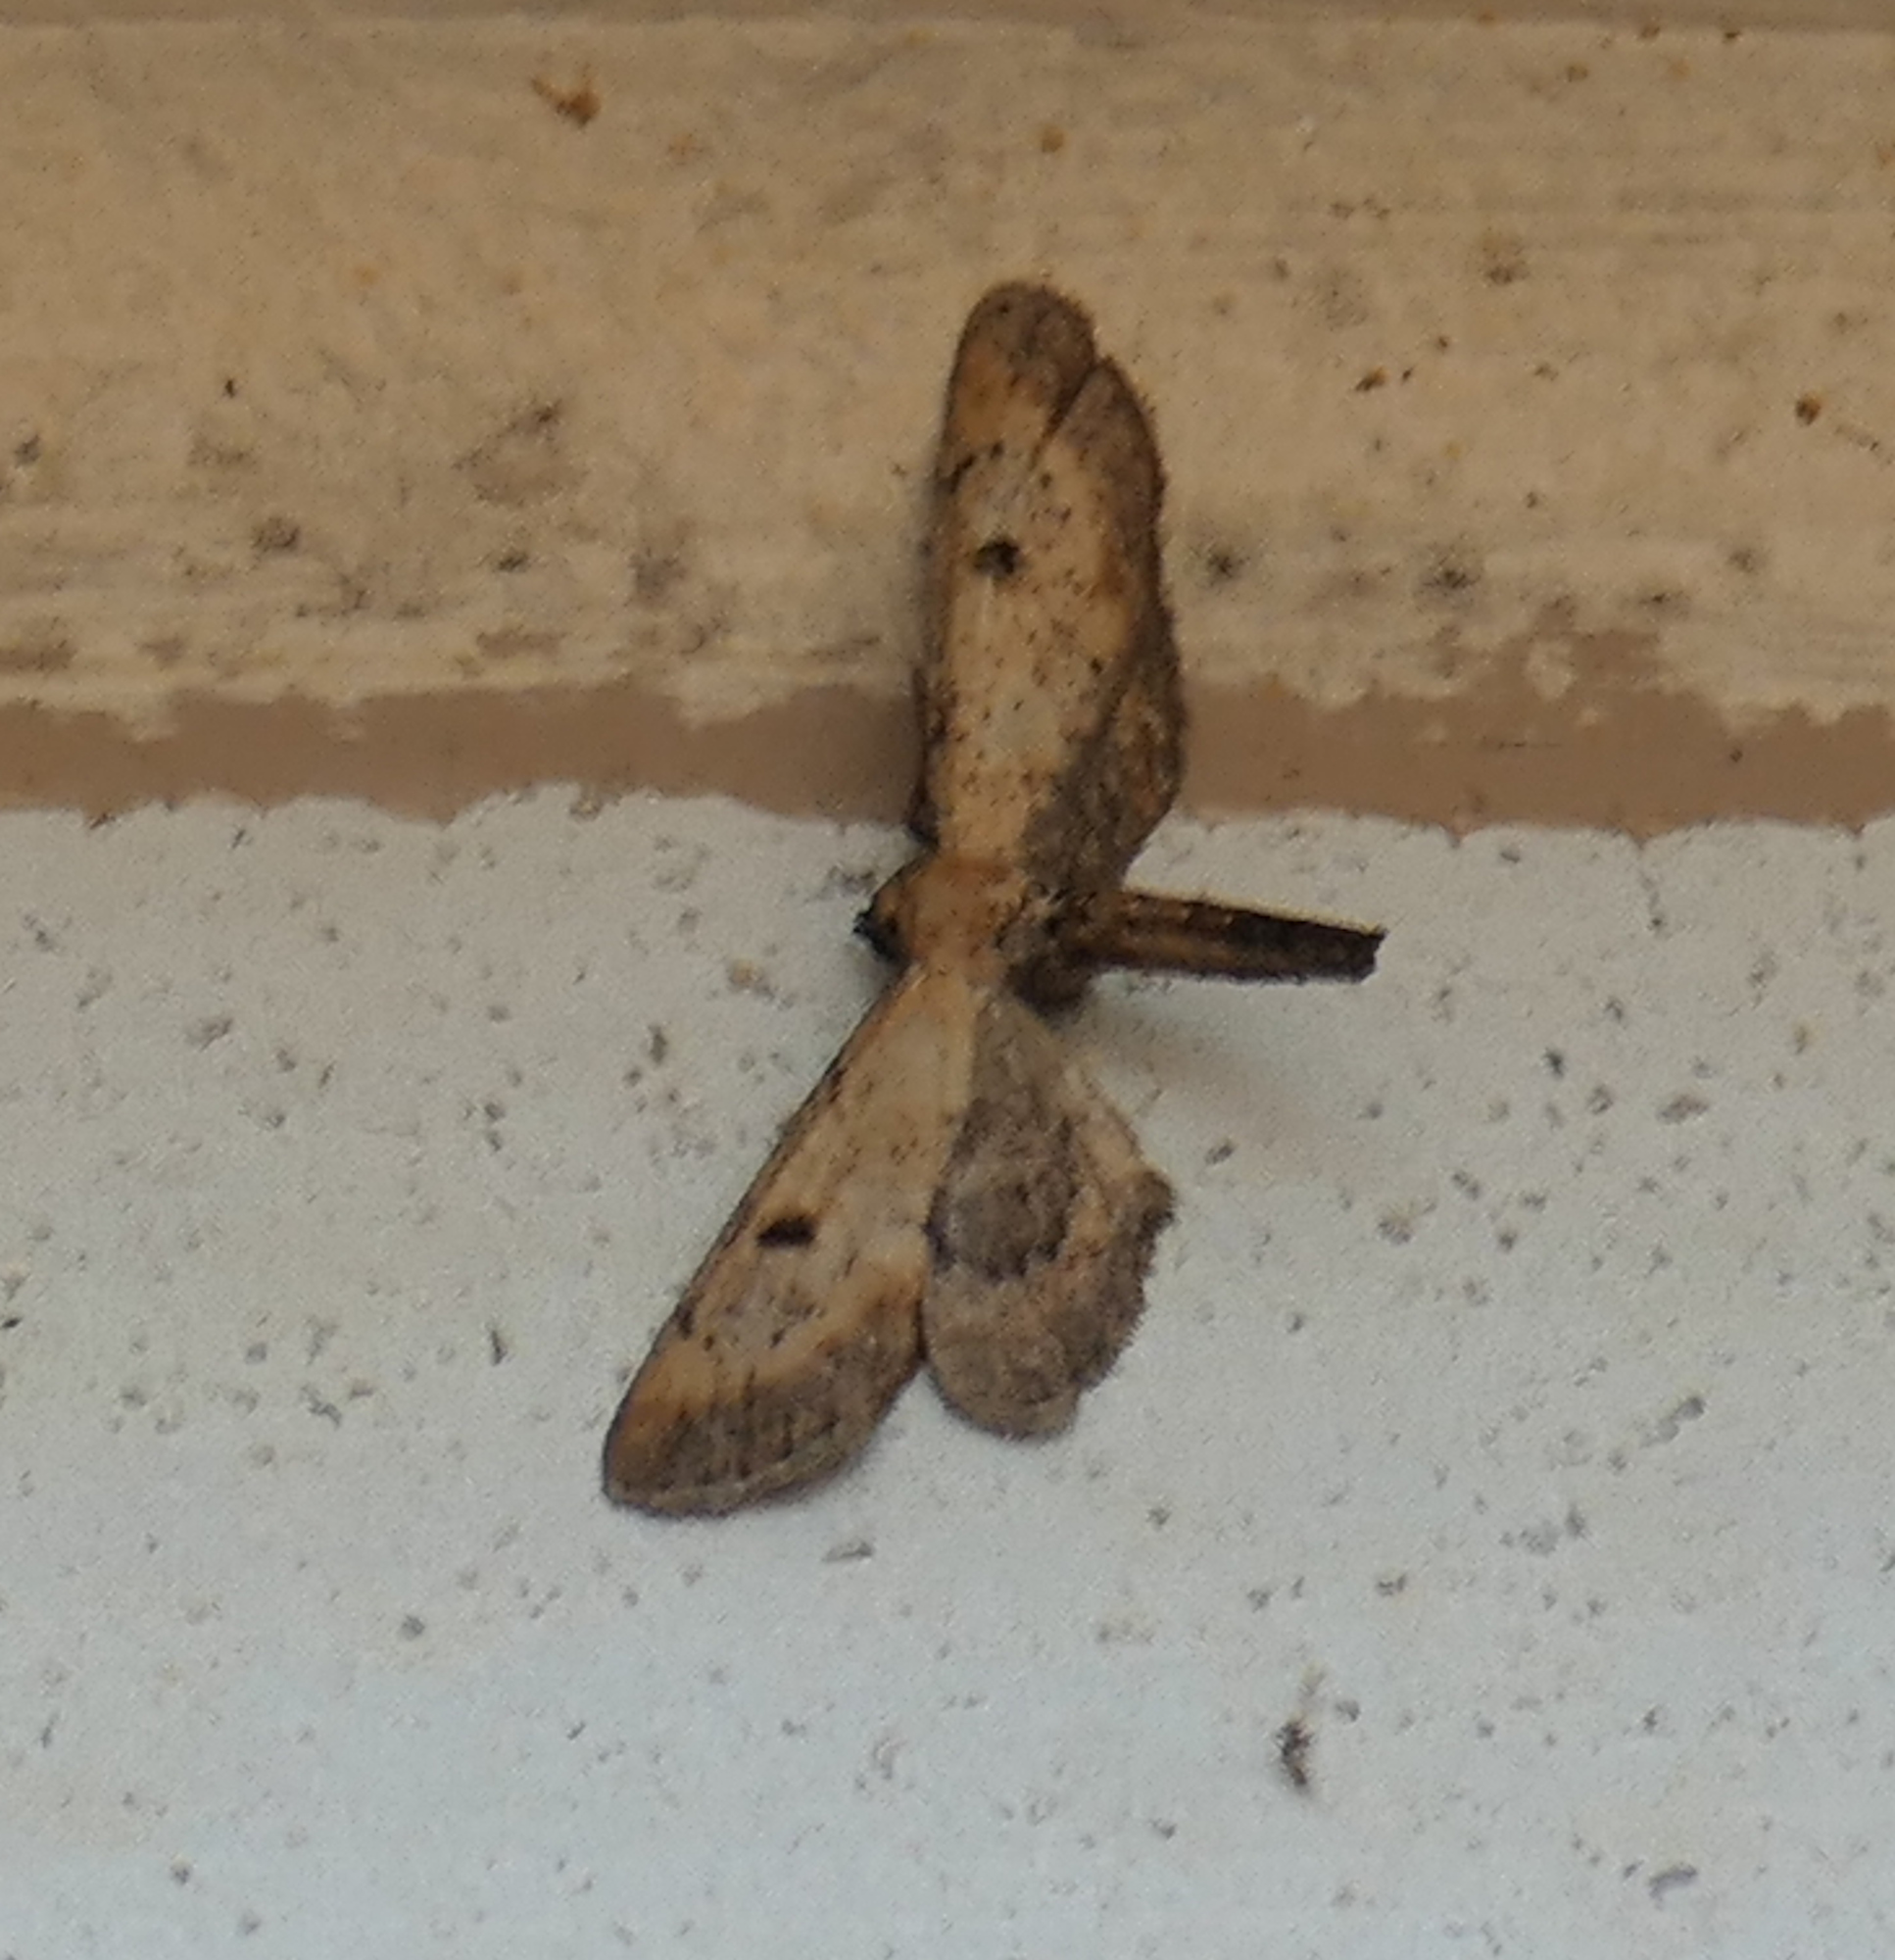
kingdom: Animalia
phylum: Arthropoda
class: Insecta
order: Lepidoptera
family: Geometridae
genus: Tornos
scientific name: Tornos scolopacinaria
